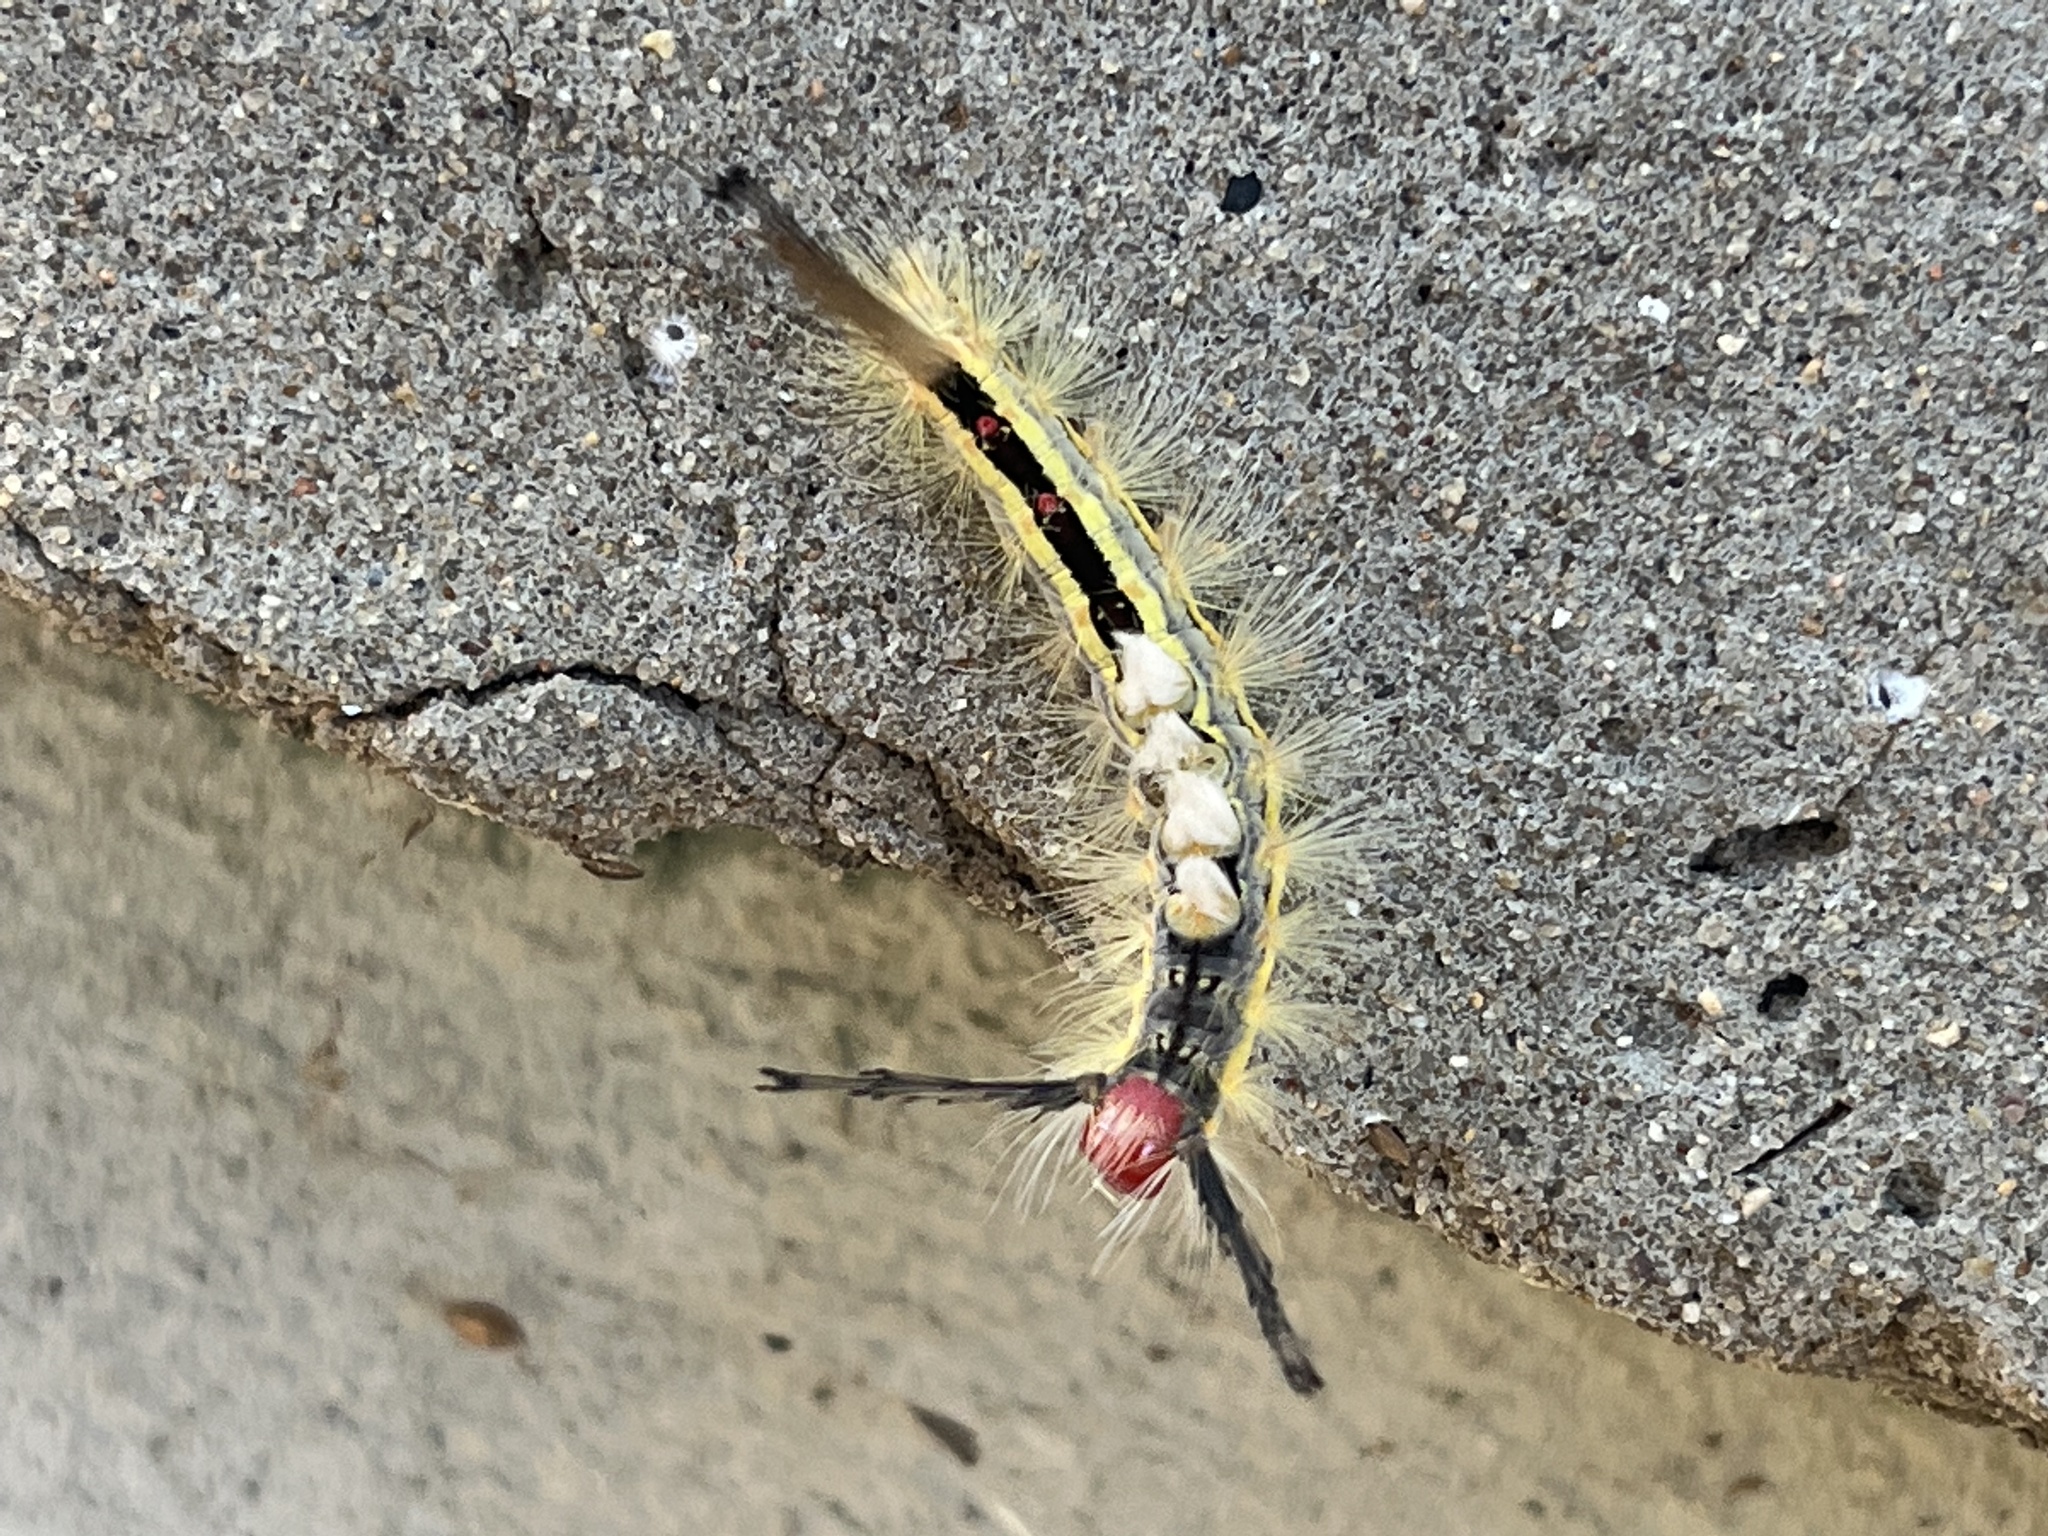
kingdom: Animalia
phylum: Arthropoda
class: Insecta
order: Lepidoptera
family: Erebidae
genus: Orgyia
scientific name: Orgyia leucostigma
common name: White-marked tussock moth
